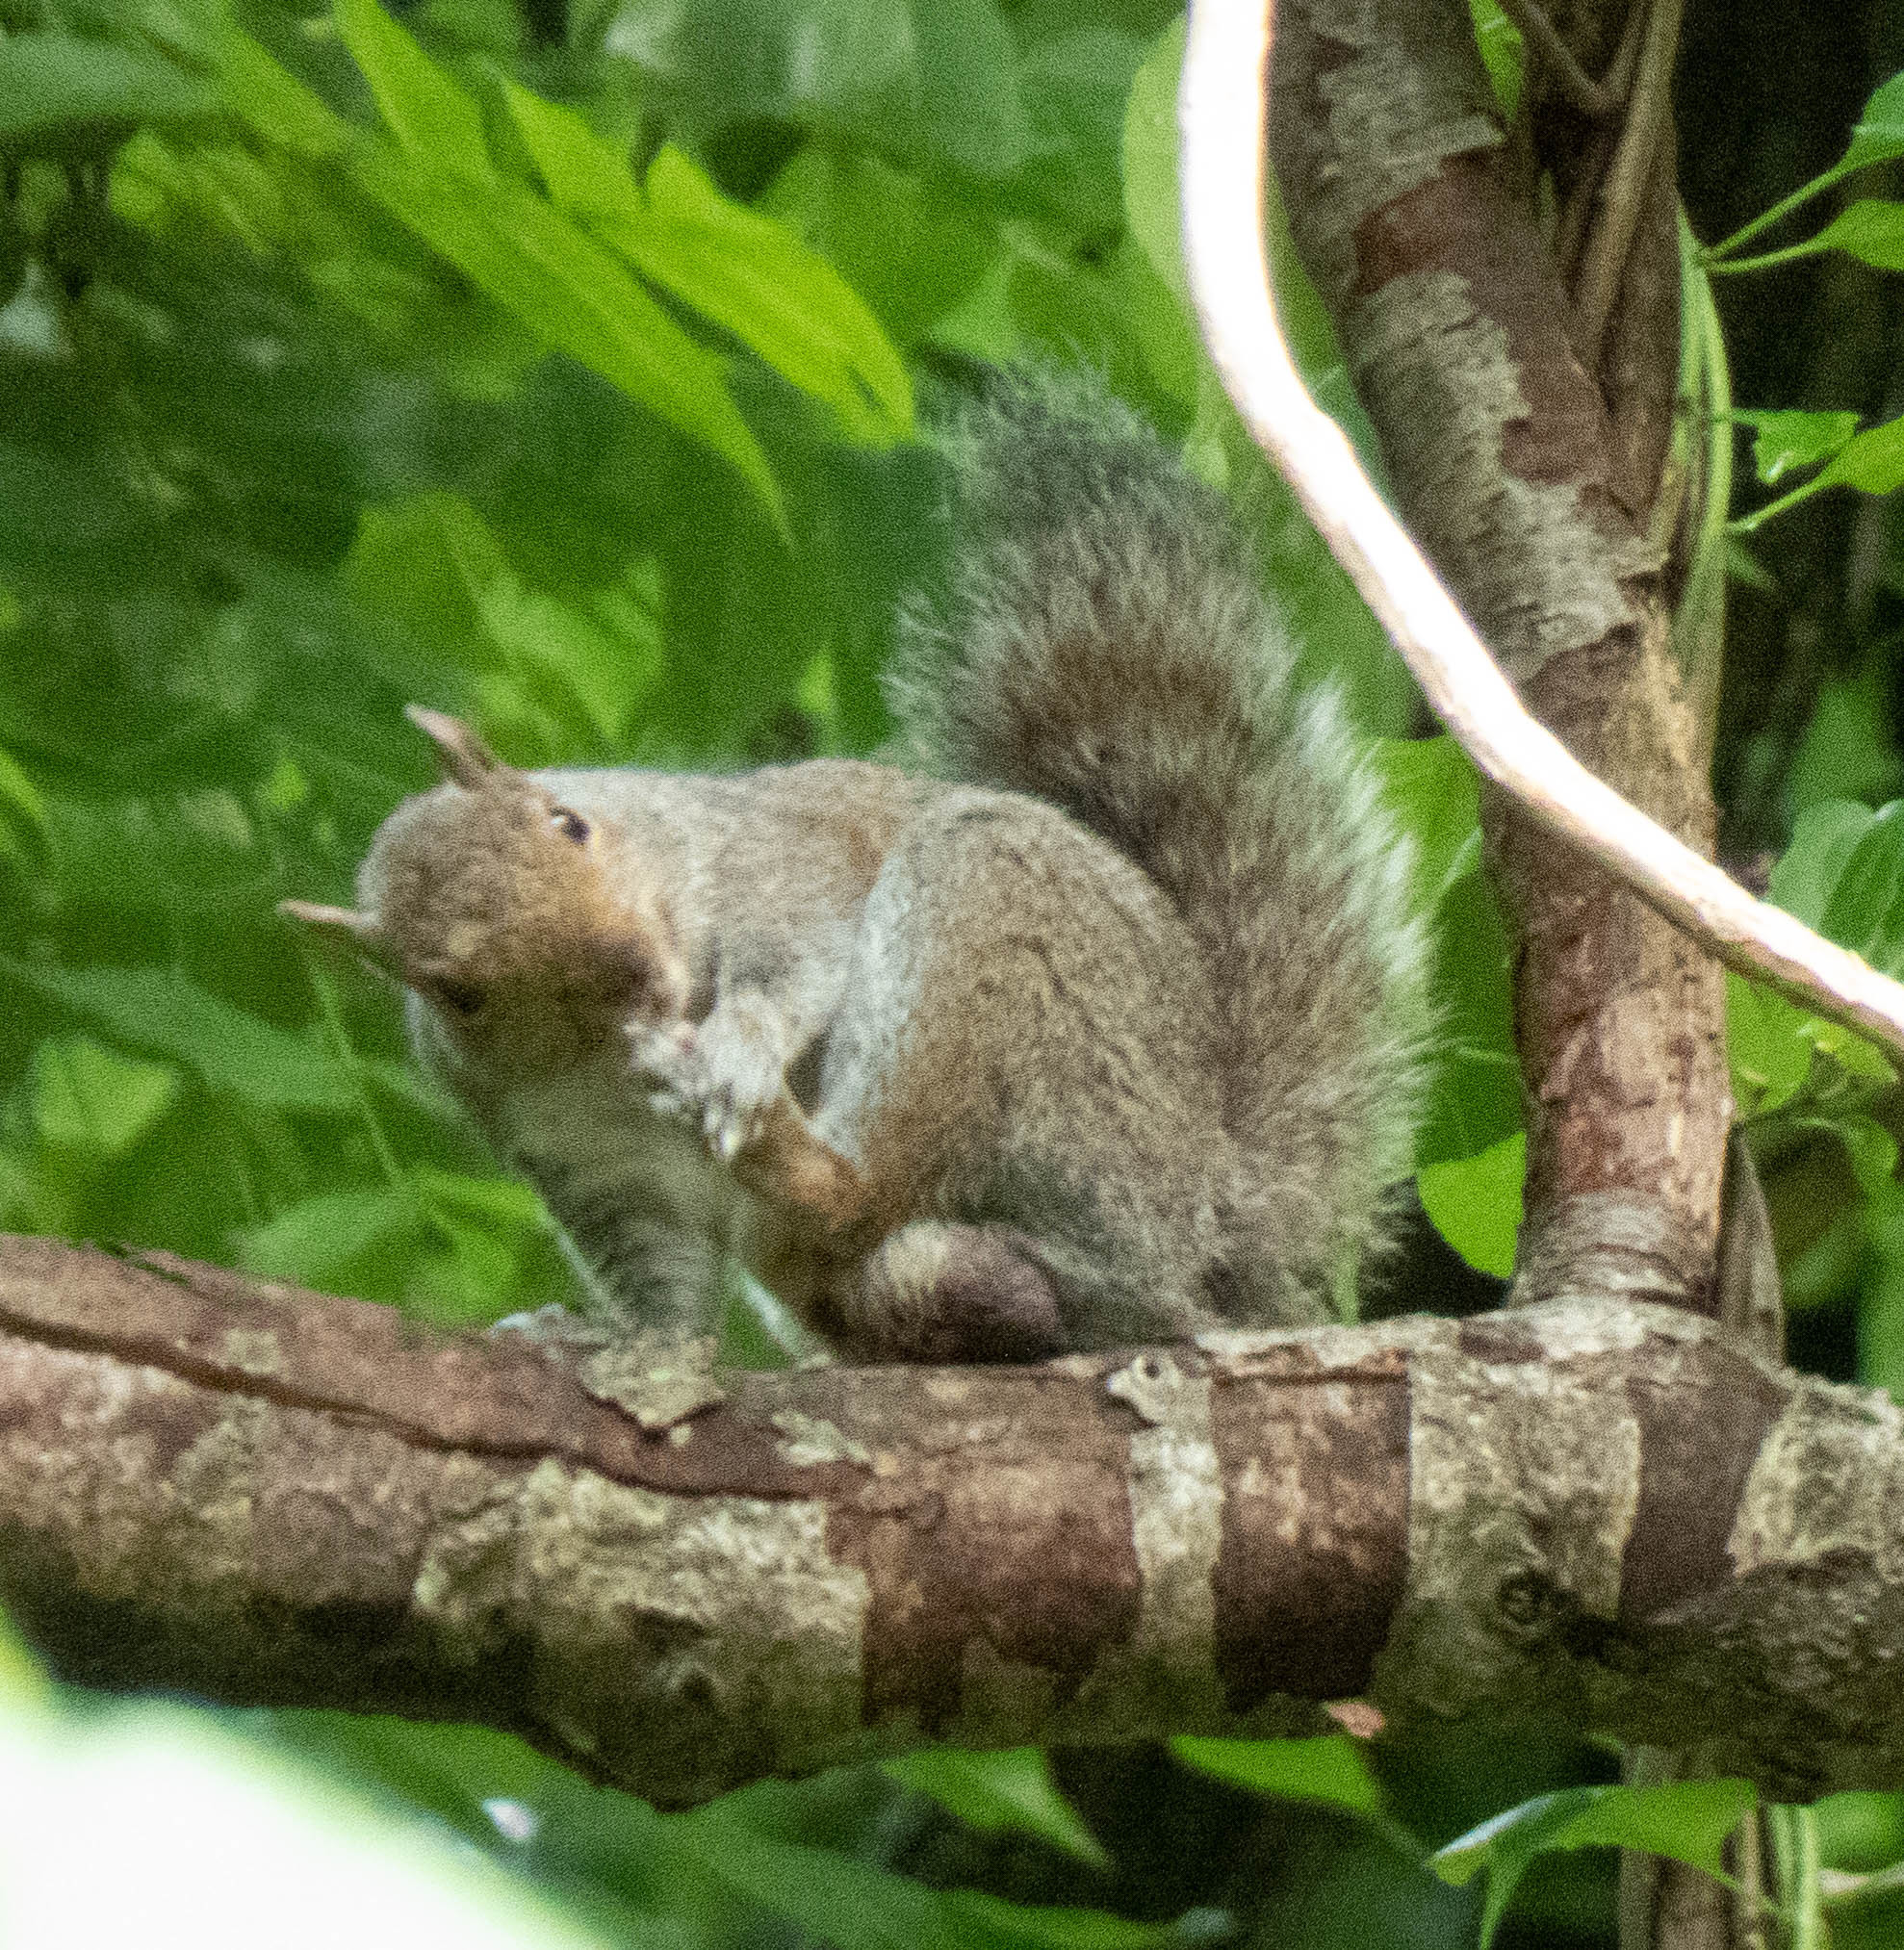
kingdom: Animalia
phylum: Chordata
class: Mammalia
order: Rodentia
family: Sciuridae
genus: Sciurus
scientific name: Sciurus carolinensis
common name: Eastern gray squirrel
